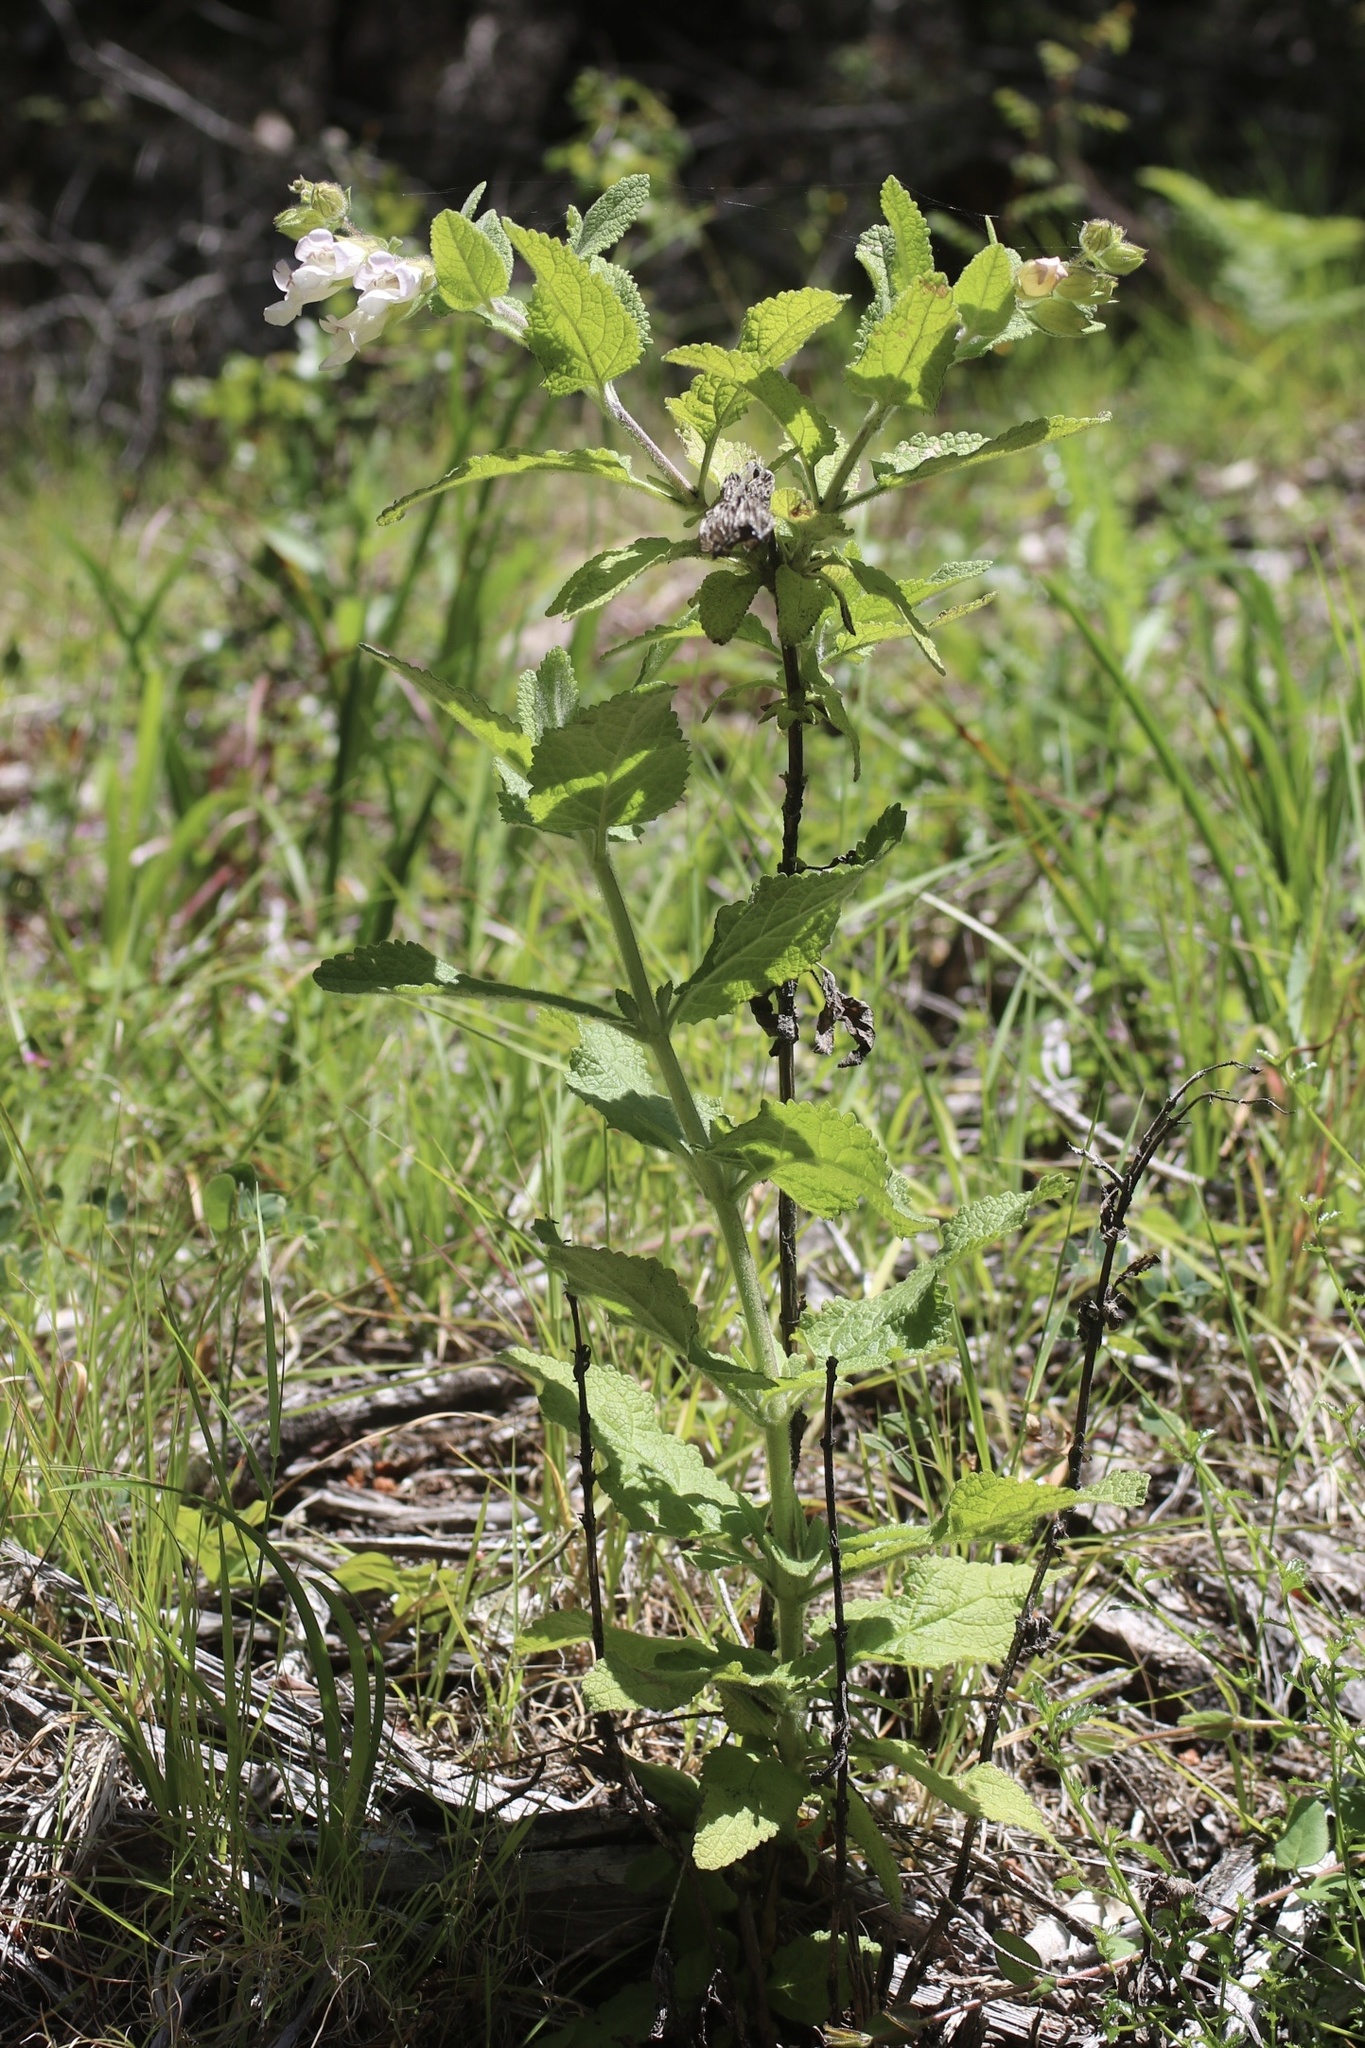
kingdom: Plantae
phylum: Tracheophyta
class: Magnoliopsida
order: Lamiales
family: Lamiaceae
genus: Lepechinia
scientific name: Lepechinia calycina
